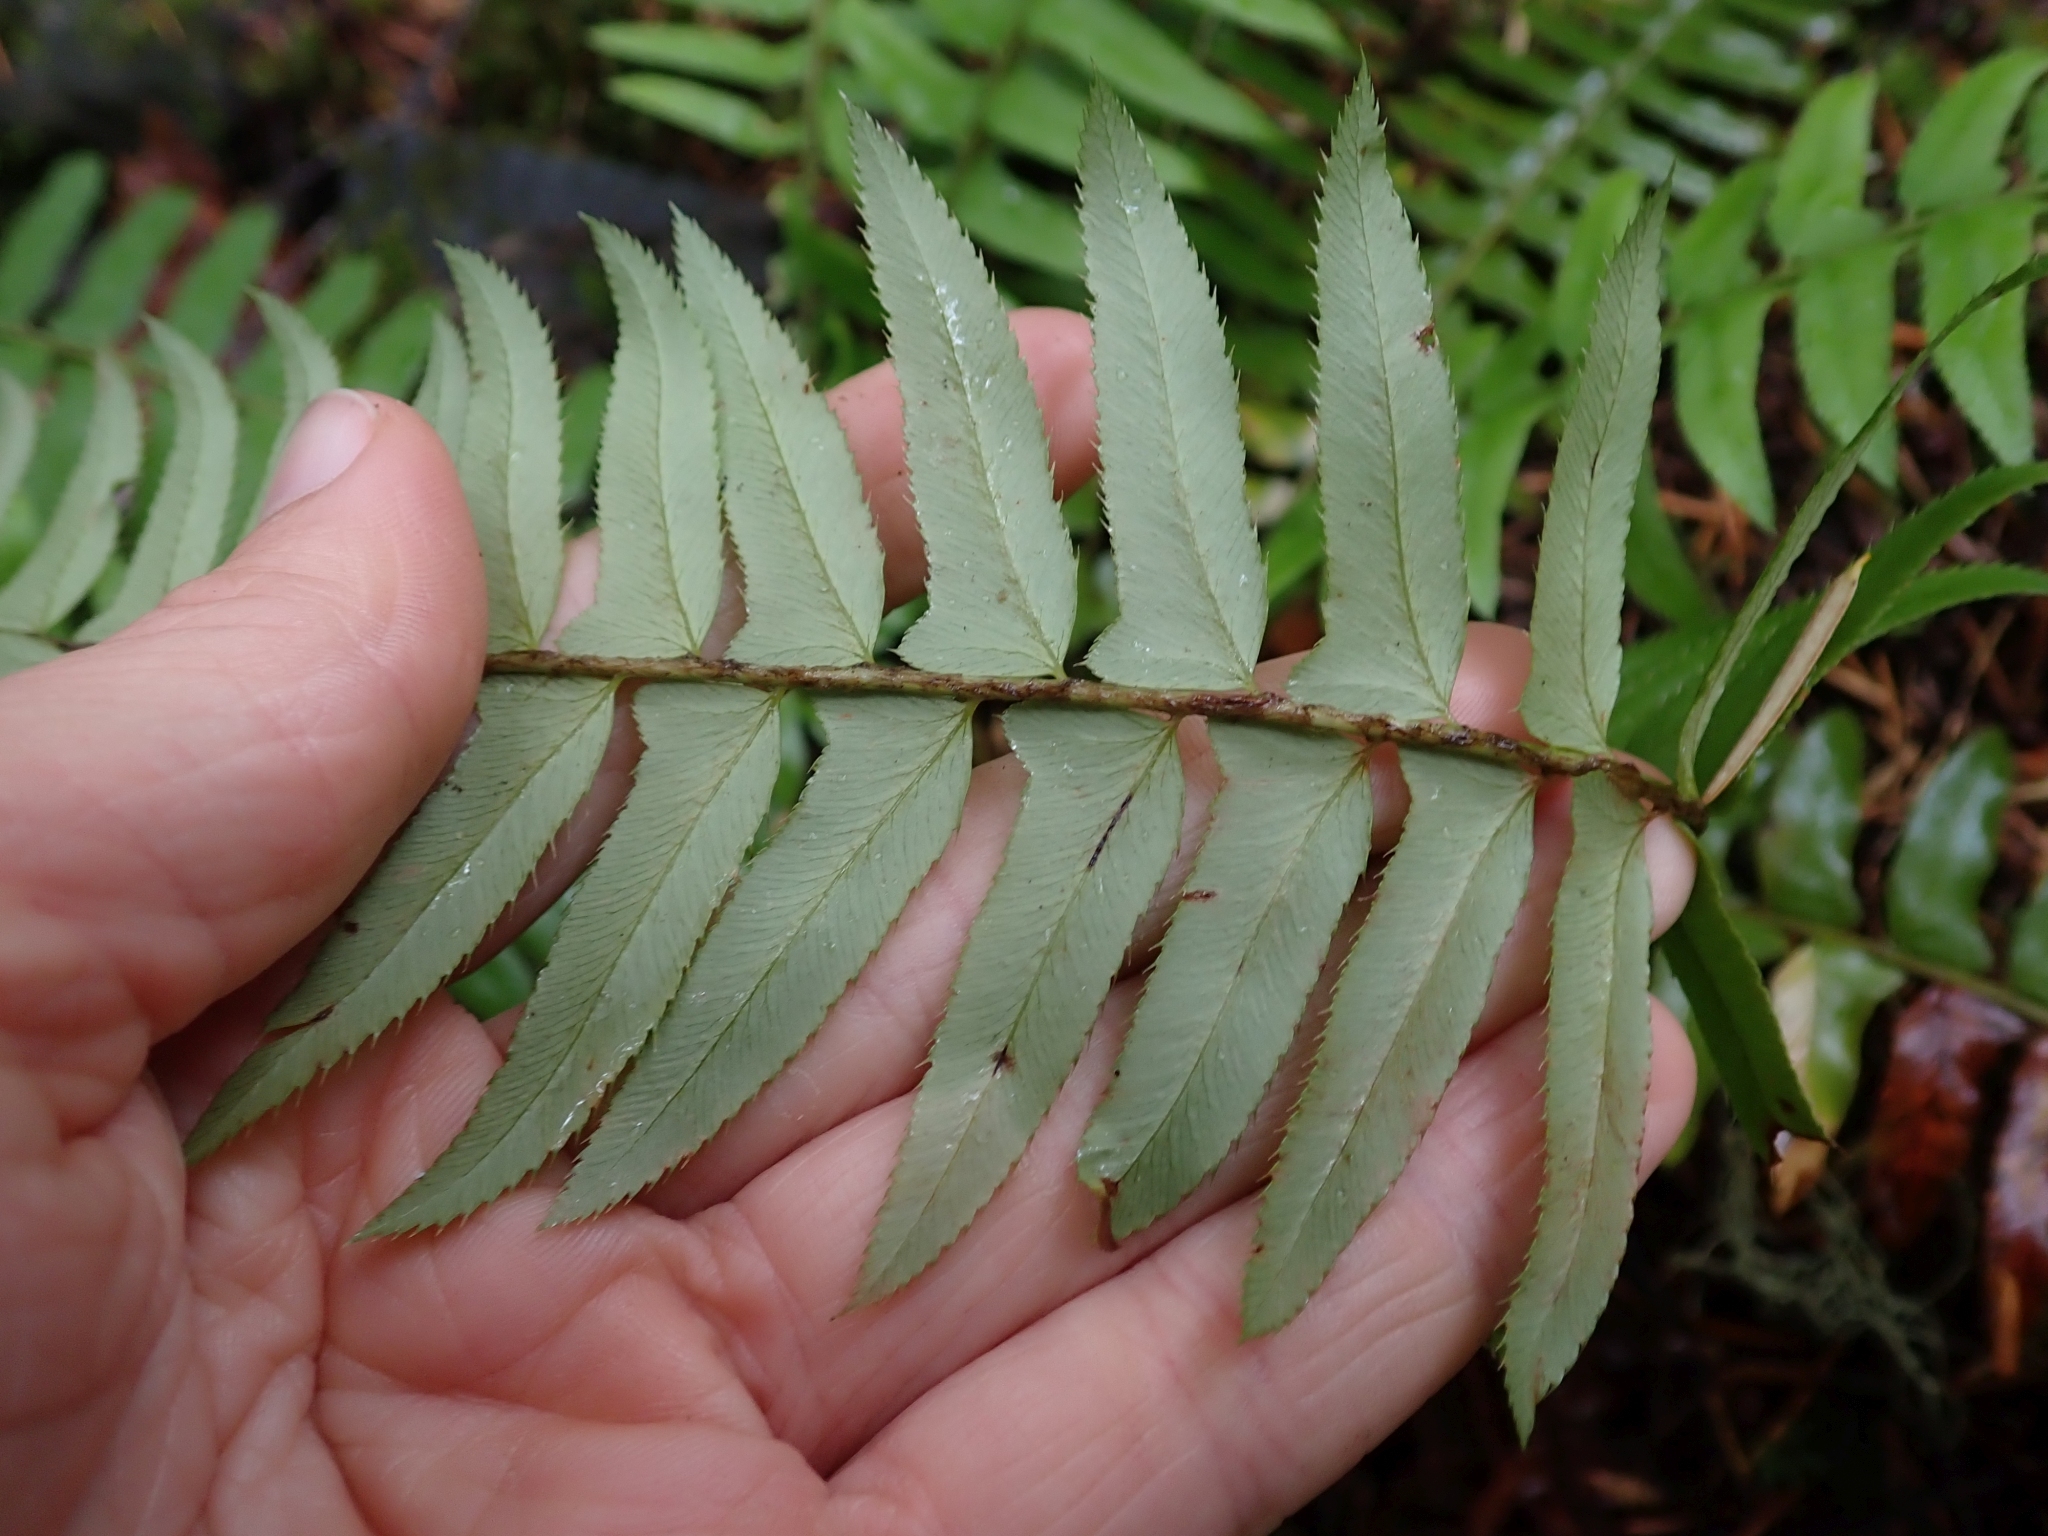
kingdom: Plantae
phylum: Tracheophyta
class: Polypodiopsida
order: Polypodiales
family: Dryopteridaceae
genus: Polystichum
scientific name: Polystichum munitum
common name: Western sword-fern
